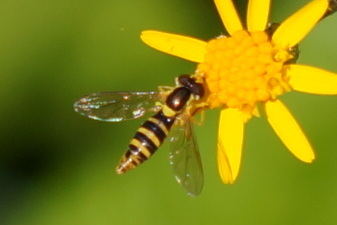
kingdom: Animalia
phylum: Arthropoda
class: Insecta
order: Diptera
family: Syrphidae
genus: Sphaerophoria
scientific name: Sphaerophoria
